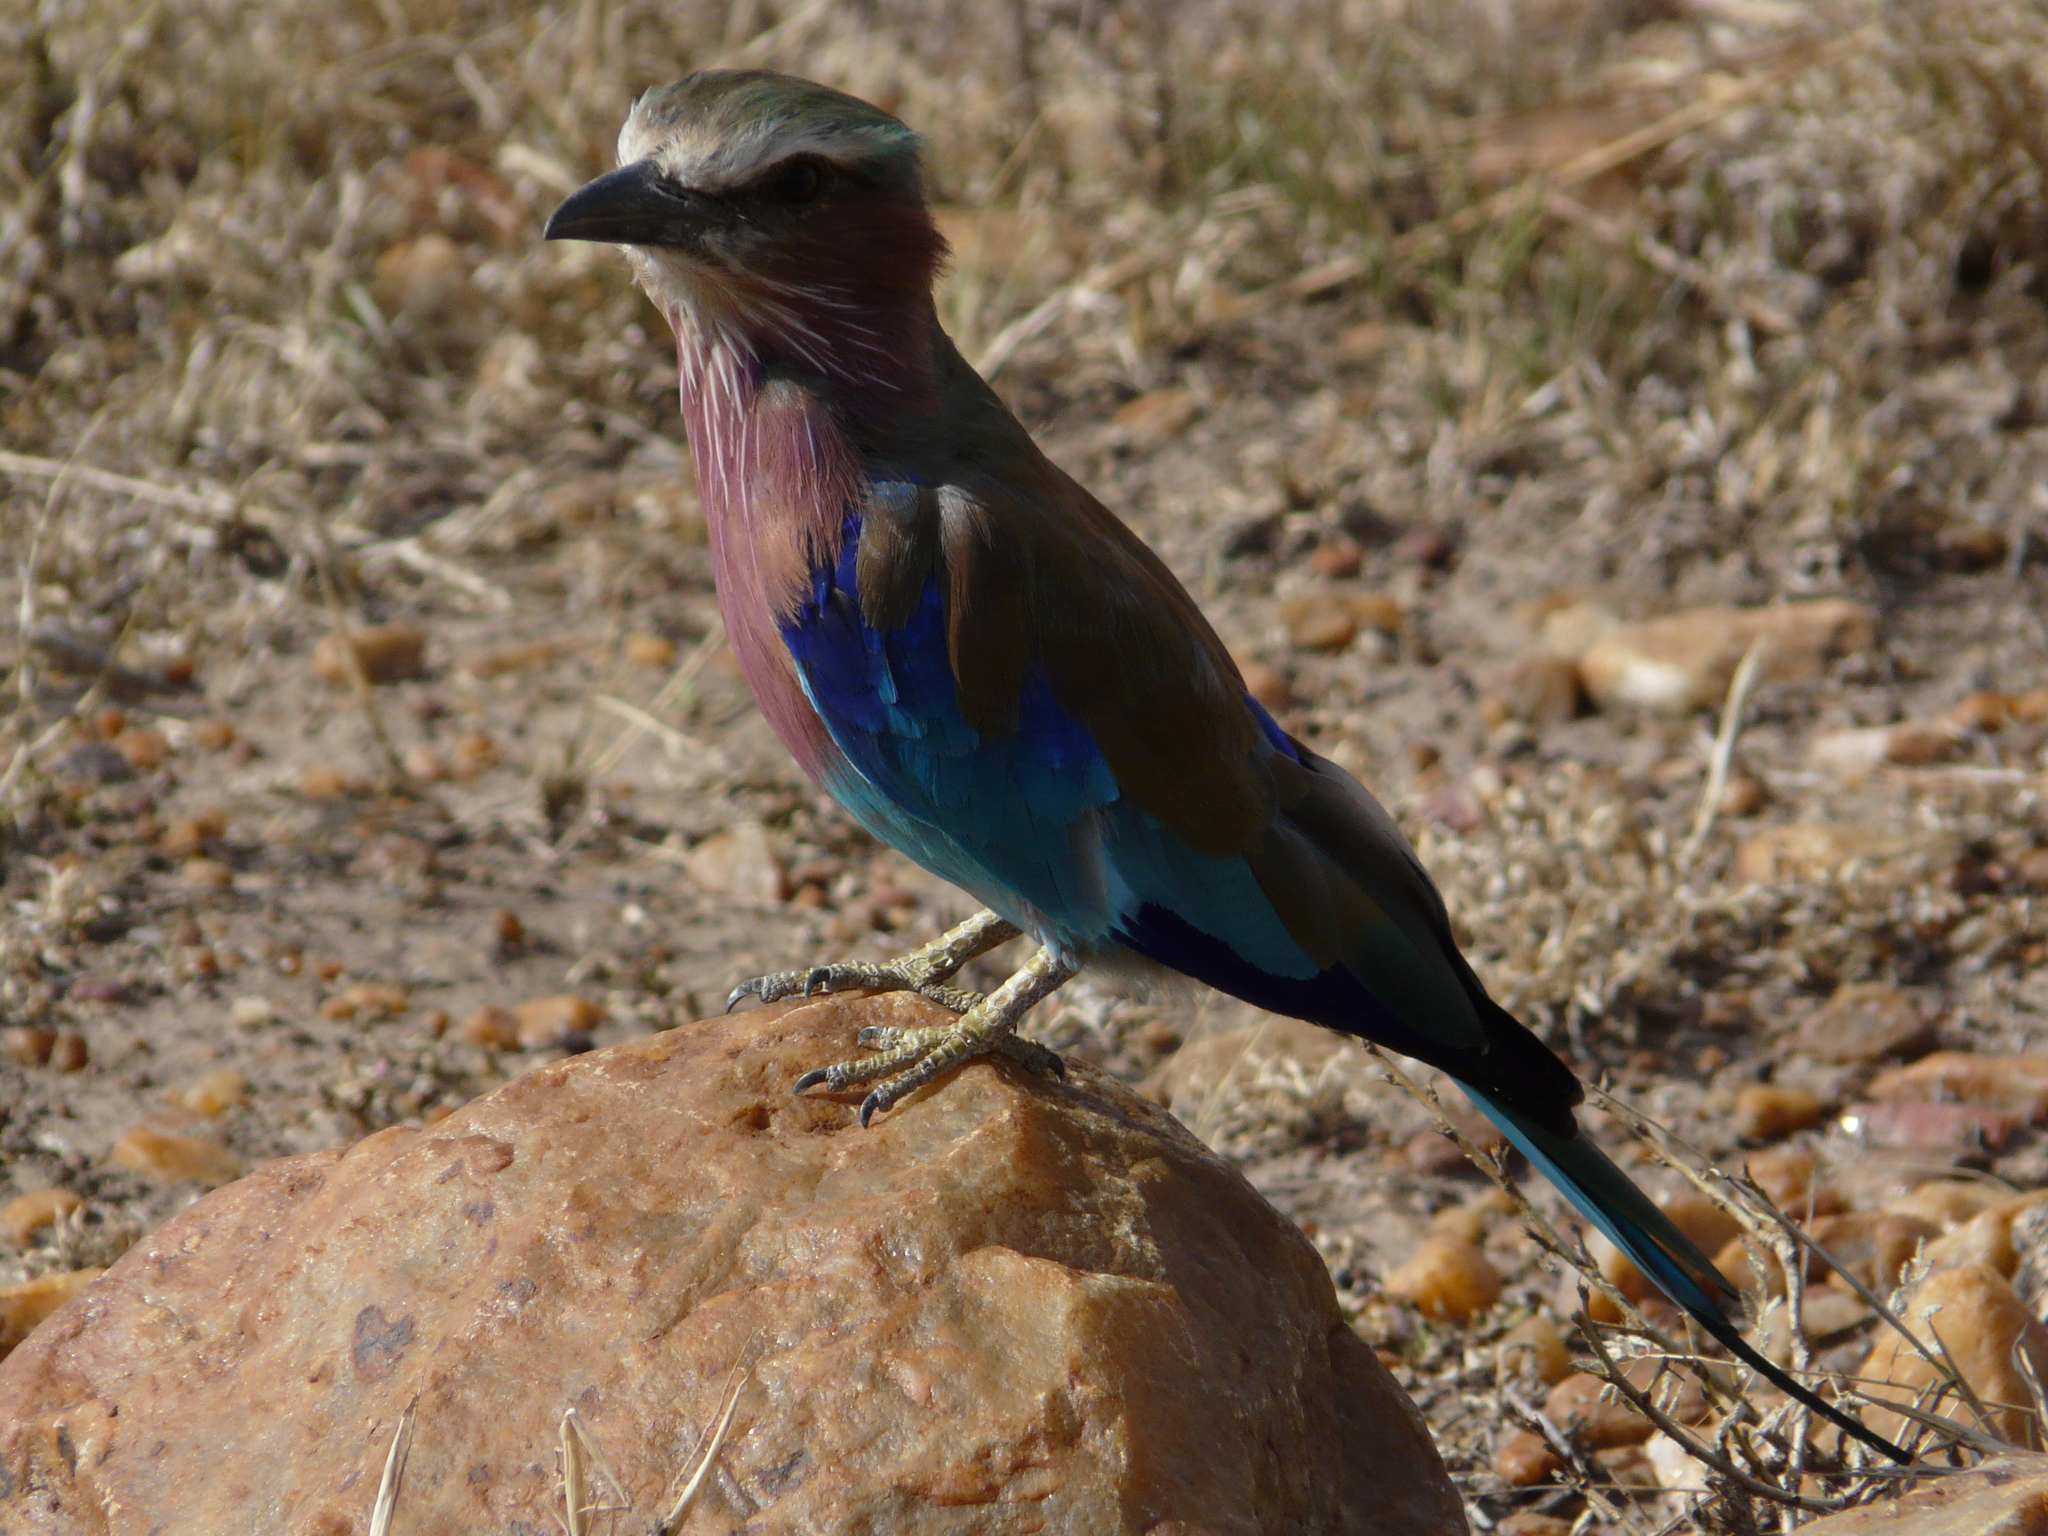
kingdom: Animalia
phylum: Chordata
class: Aves
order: Coraciiformes
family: Coraciidae
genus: Coracias
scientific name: Coracias caudatus
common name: Lilac-breasted roller
